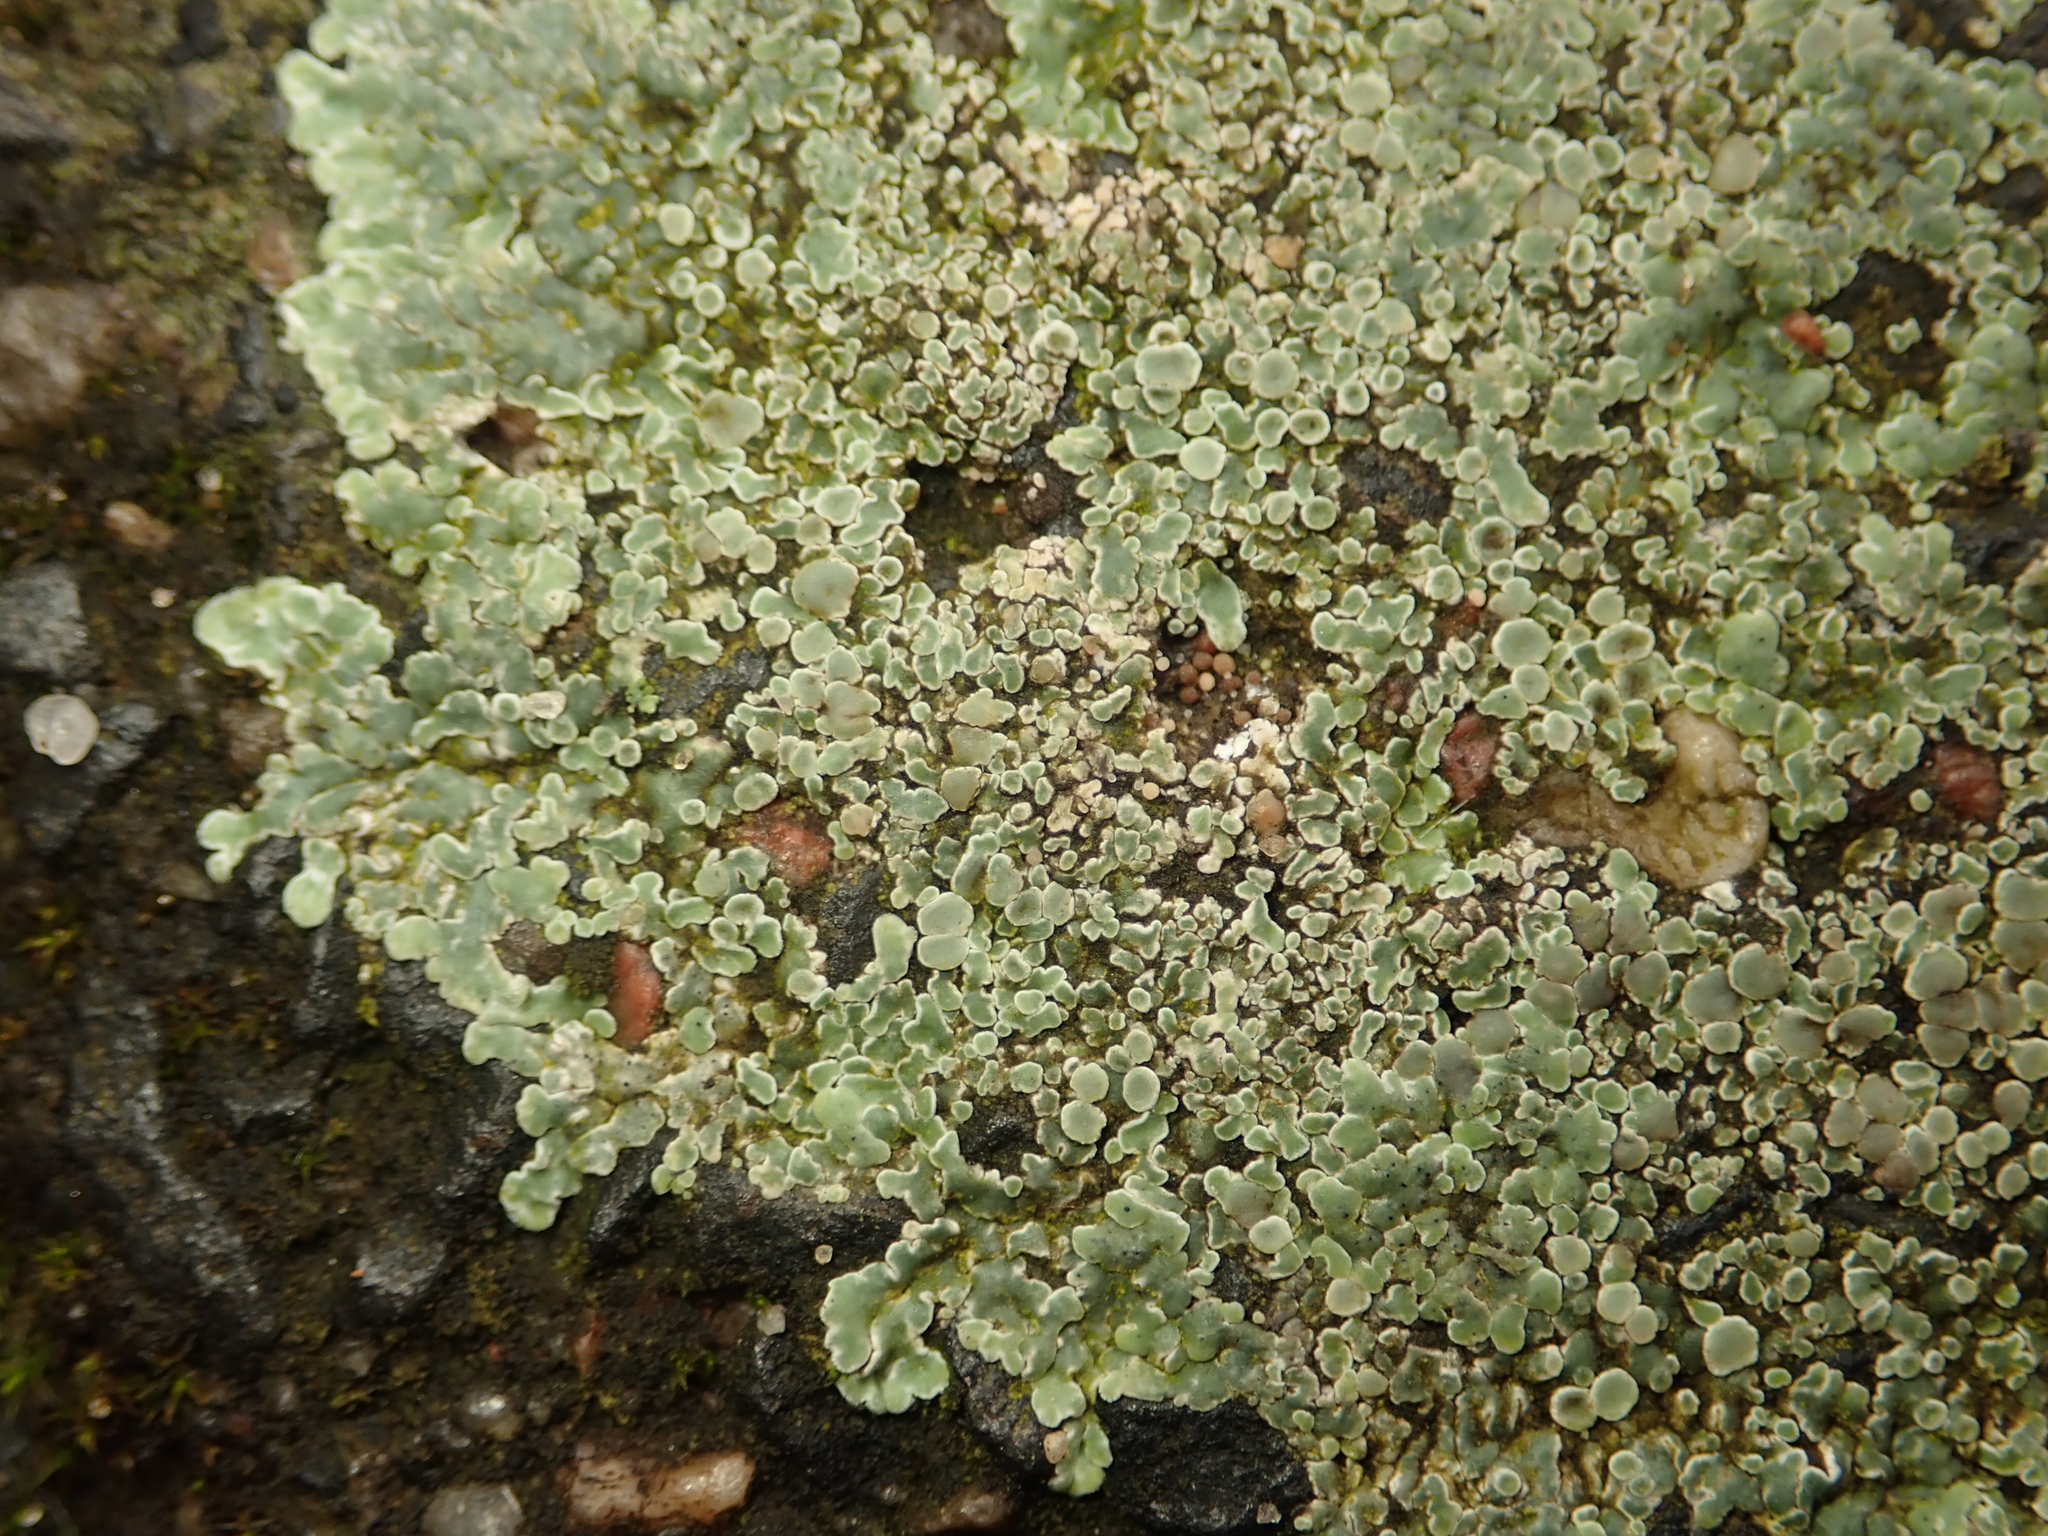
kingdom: Fungi
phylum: Ascomycota
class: Lecanoromycetes
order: Lecanorales
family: Lecanoraceae
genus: Protoparmeliopsis
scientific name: Protoparmeliopsis muralis
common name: Stonewall rim lichen
